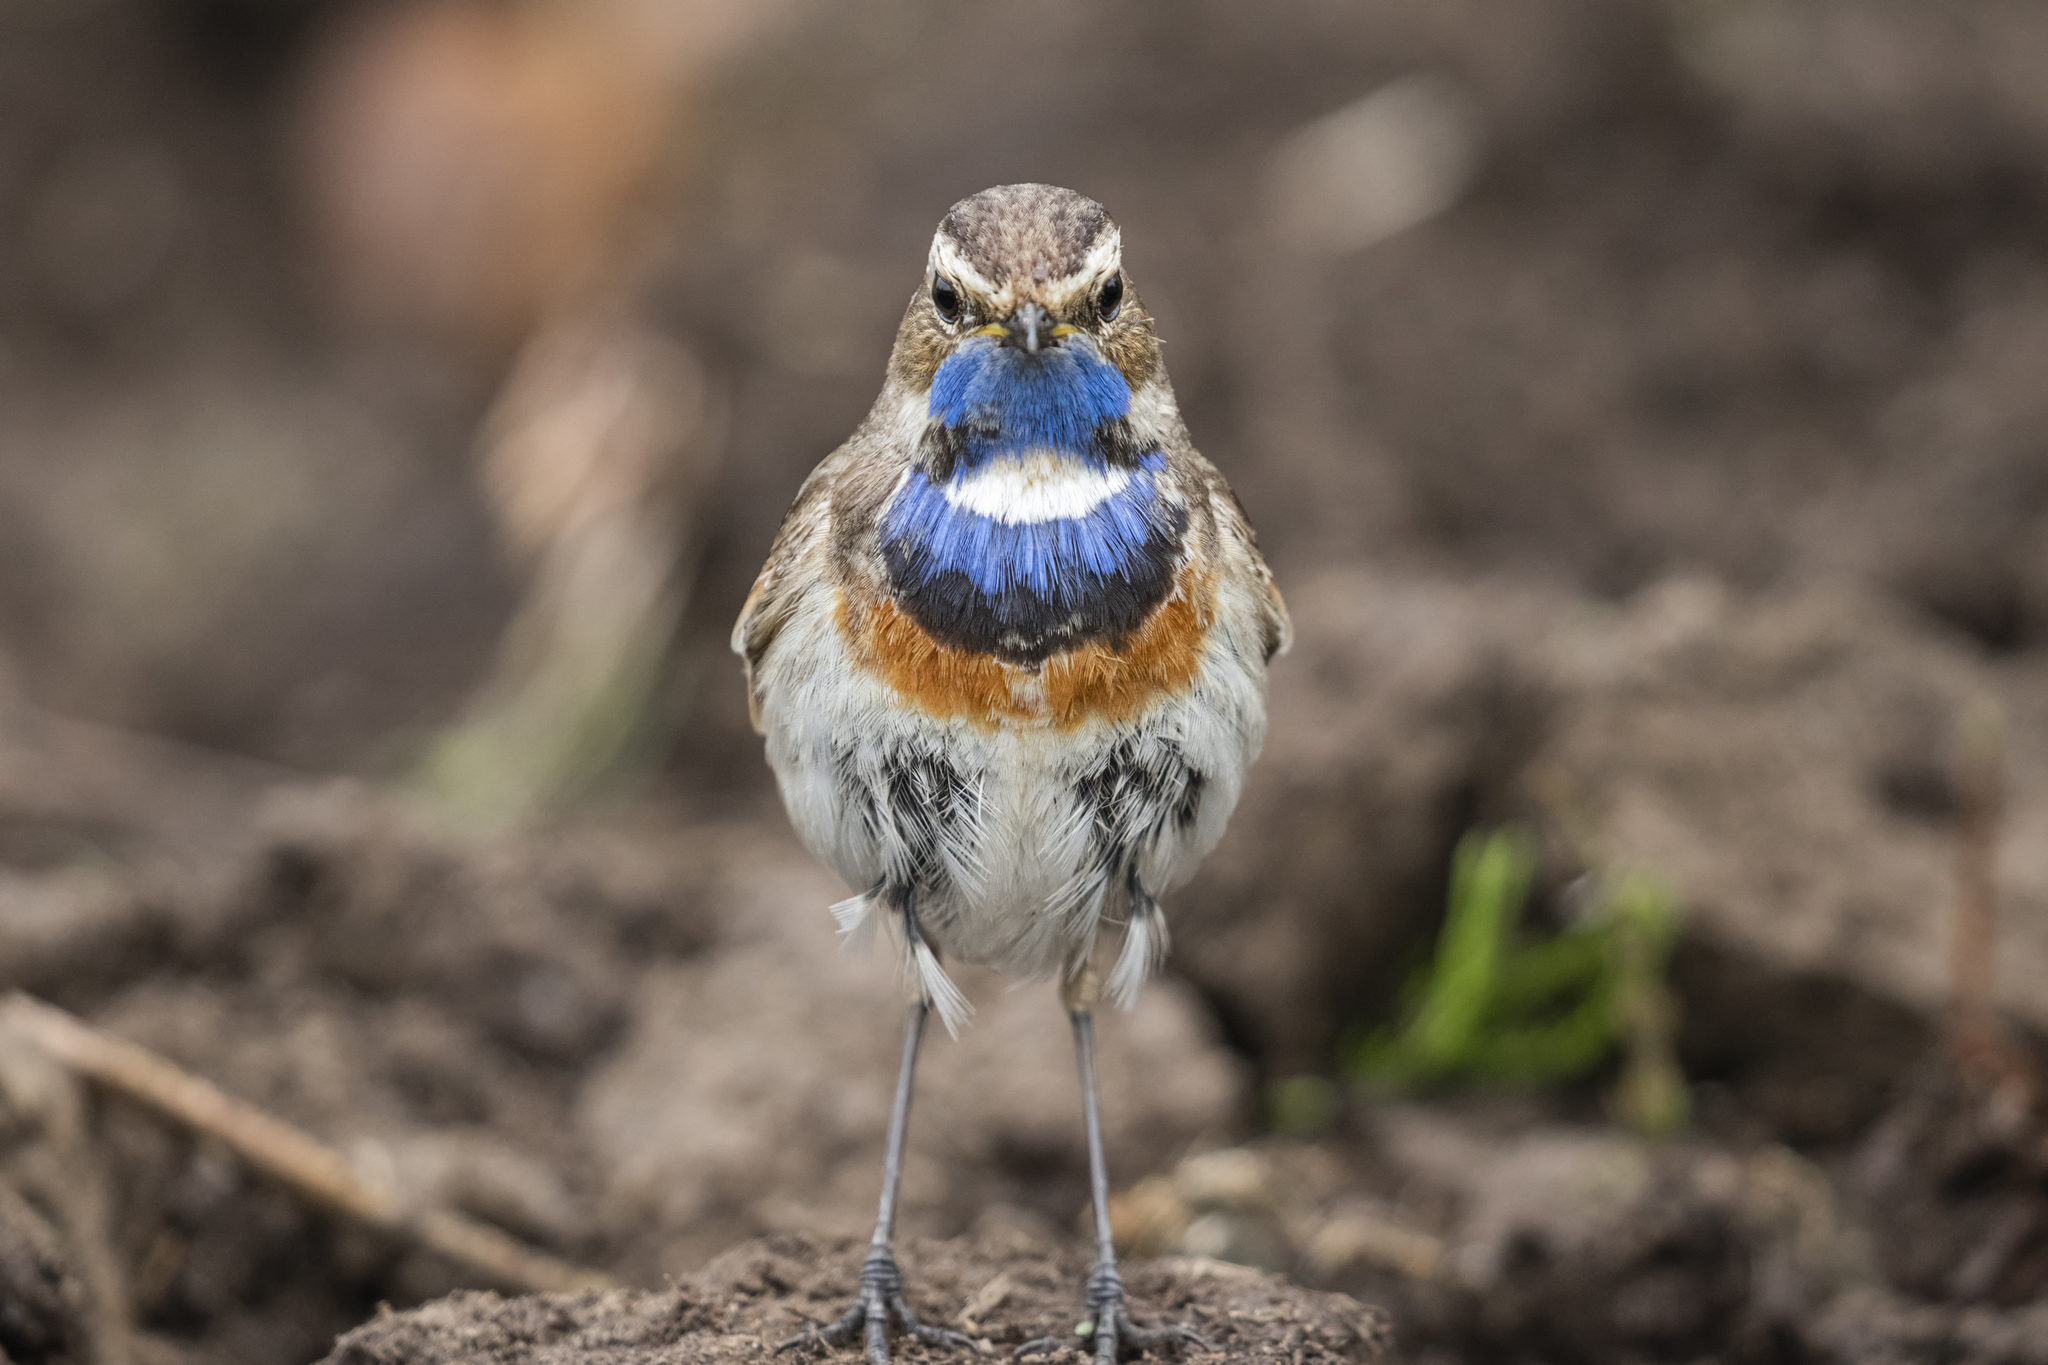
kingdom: Animalia
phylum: Chordata
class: Aves
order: Passeriformes
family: Muscicapidae
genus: Luscinia
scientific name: Luscinia svecica
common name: Bluethroat
